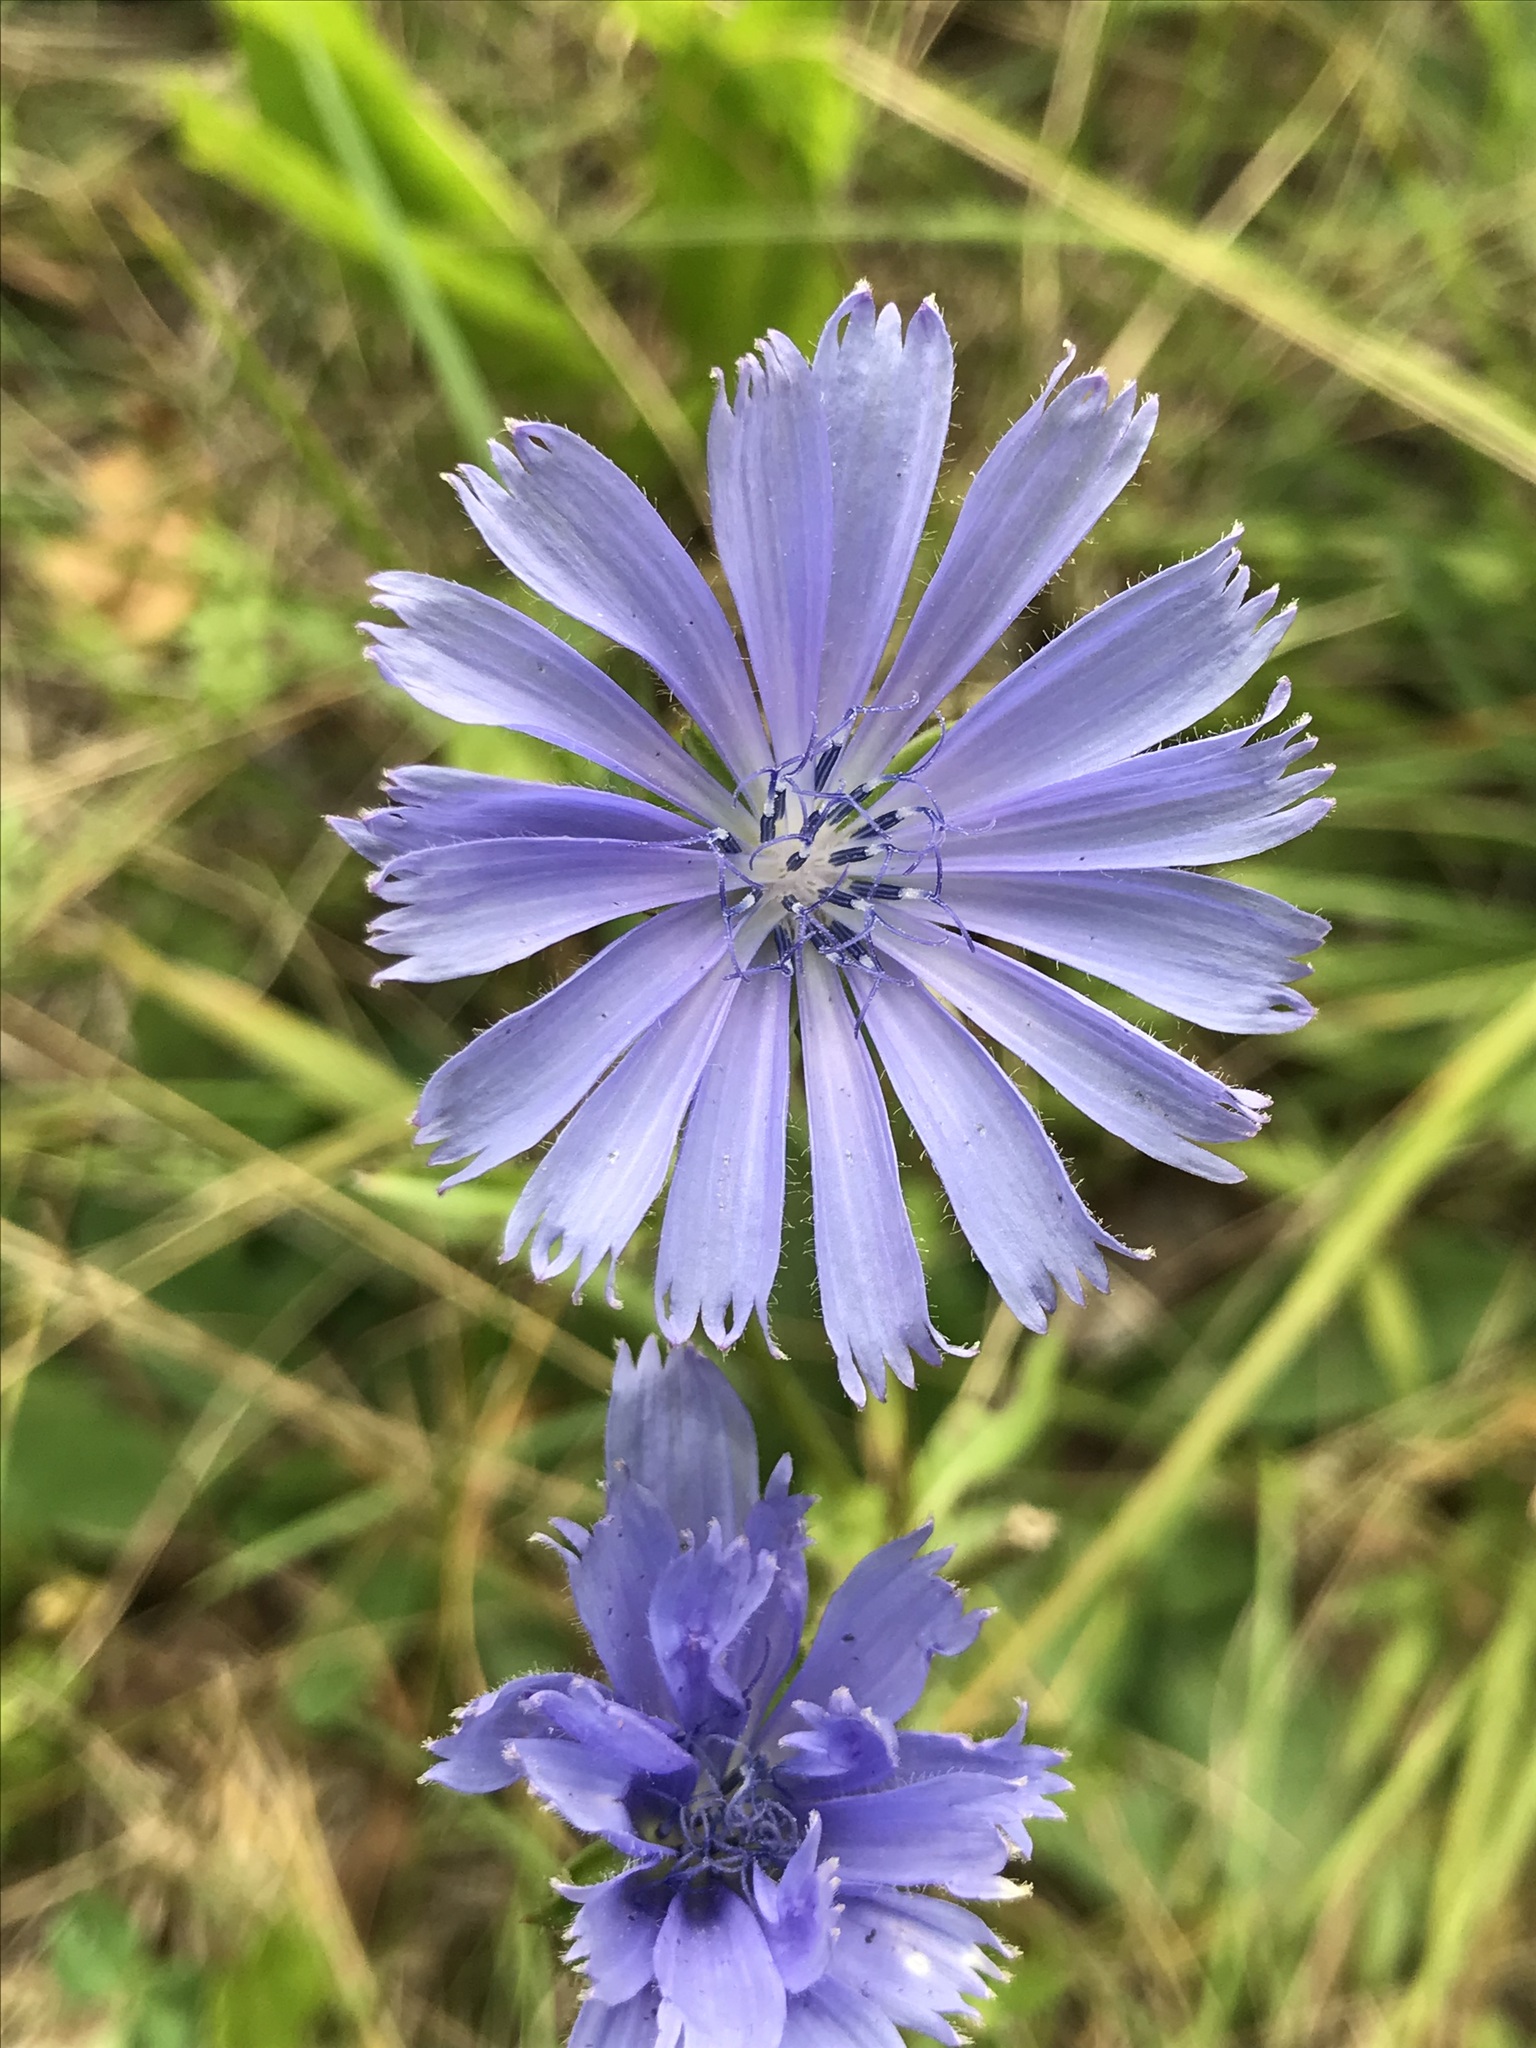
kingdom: Plantae
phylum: Tracheophyta
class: Magnoliopsida
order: Asterales
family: Asteraceae
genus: Cichorium
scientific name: Cichorium intybus
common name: Chicory
